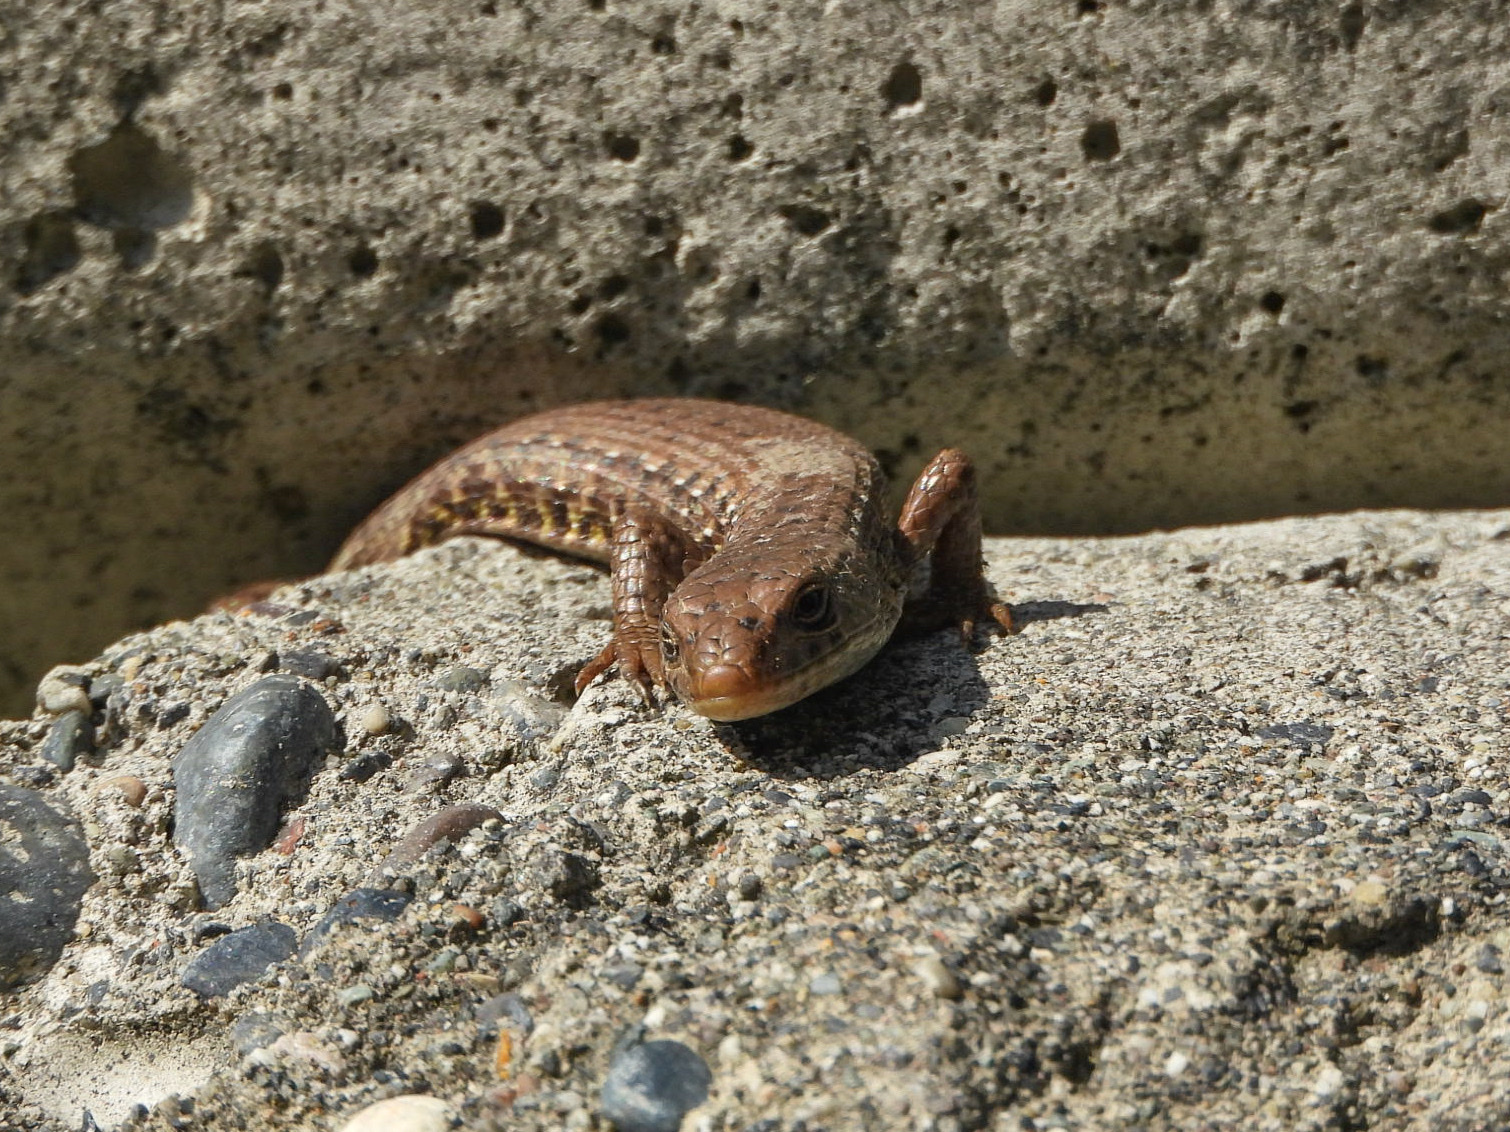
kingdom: Animalia
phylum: Chordata
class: Squamata
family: Anguidae
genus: Elgaria
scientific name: Elgaria coerulea
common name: Northern alligator lizard
